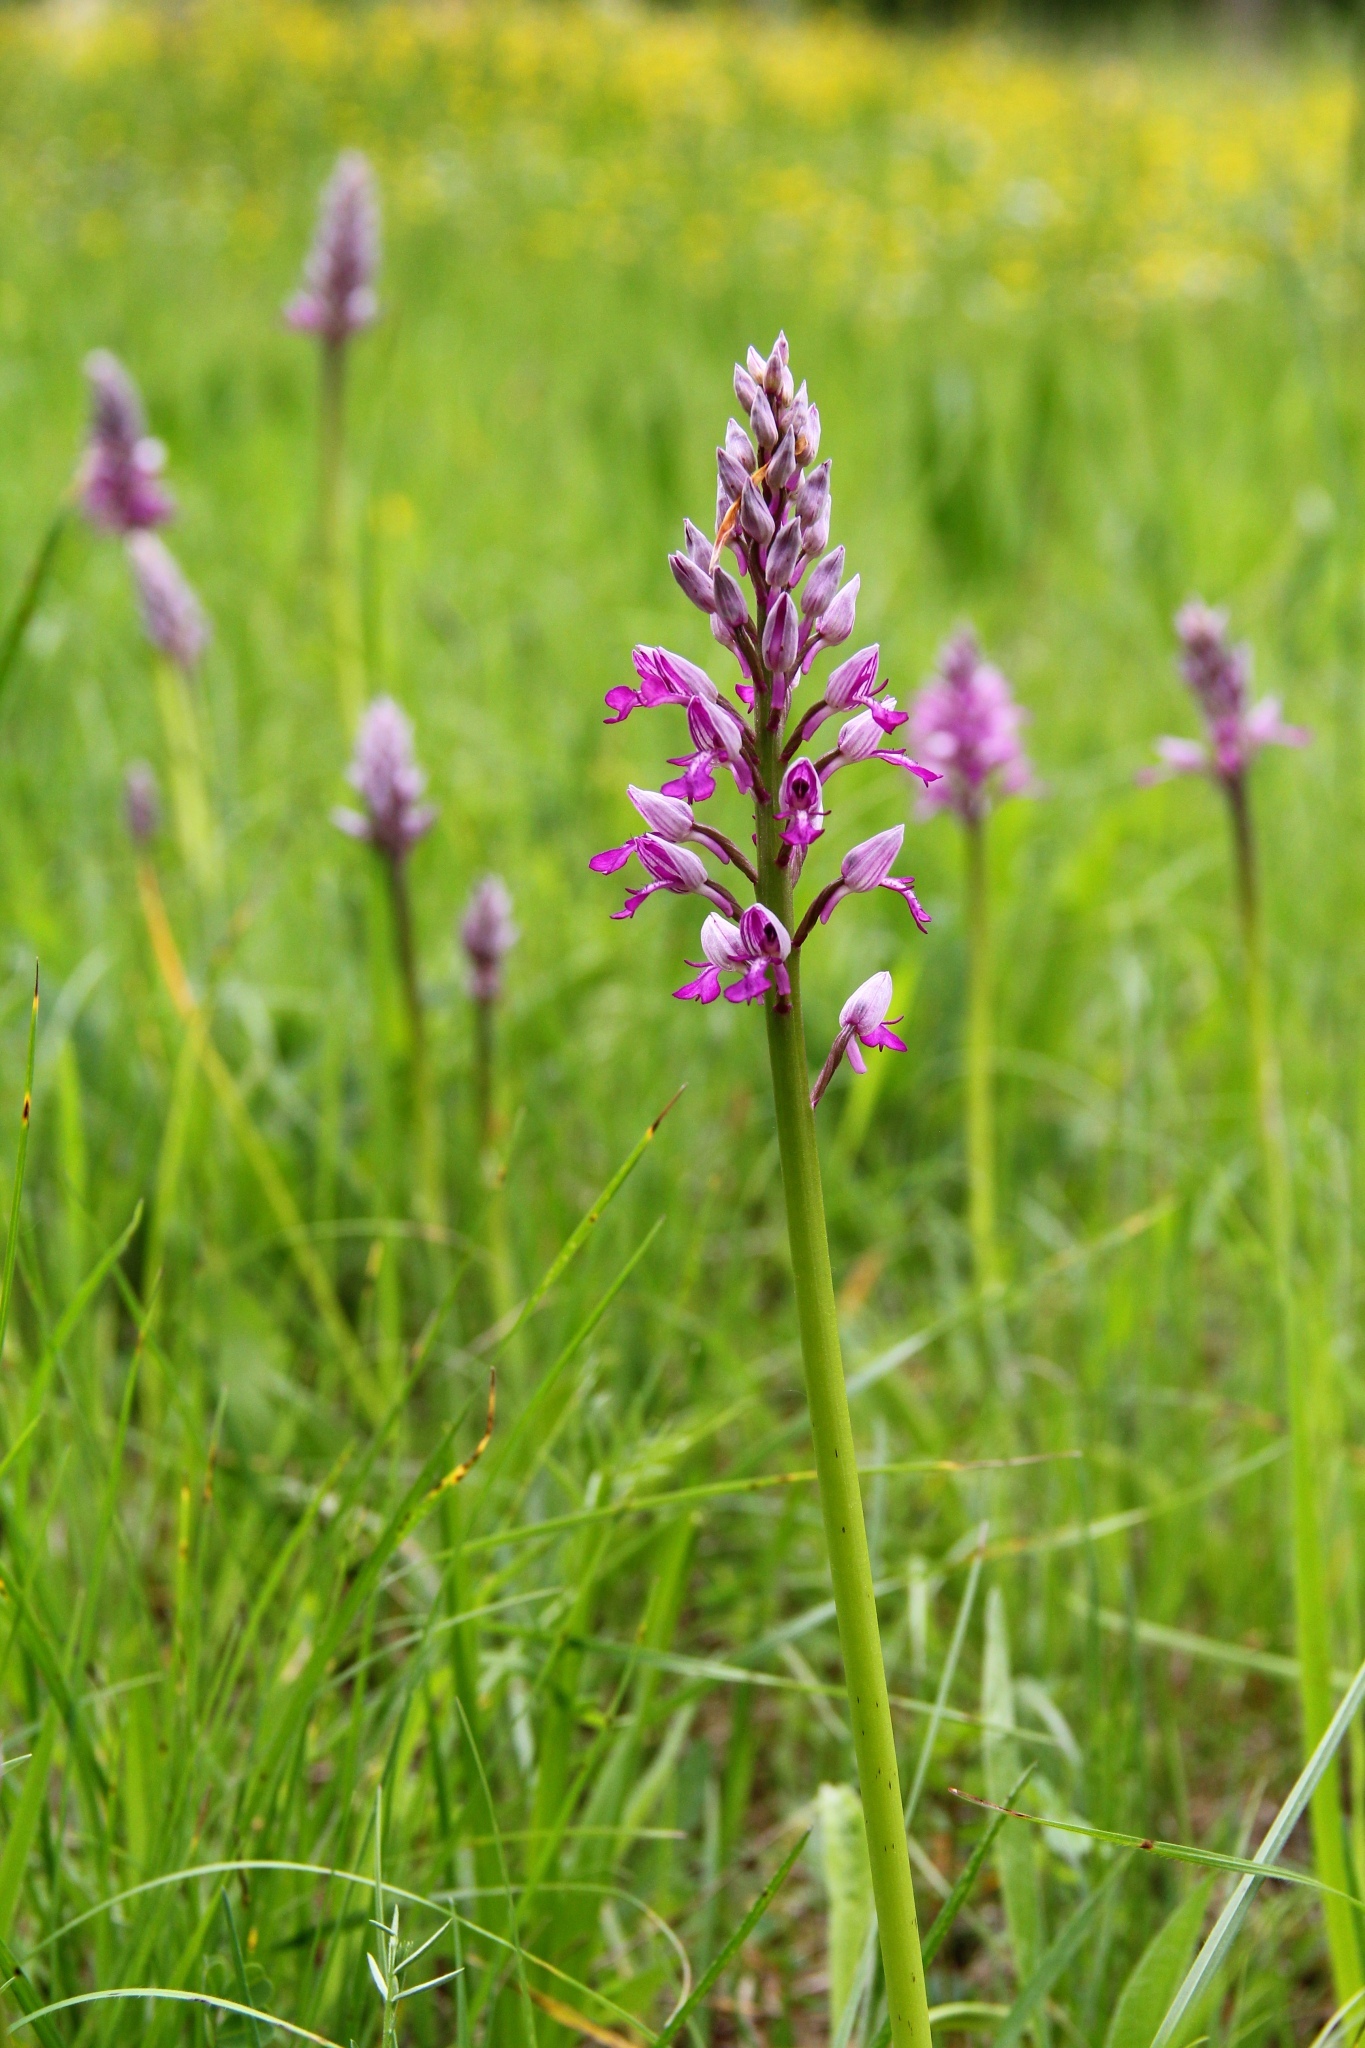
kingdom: Plantae
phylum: Tracheophyta
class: Liliopsida
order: Asparagales
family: Orchidaceae
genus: Orchis
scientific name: Orchis militaris
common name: Military orchid
